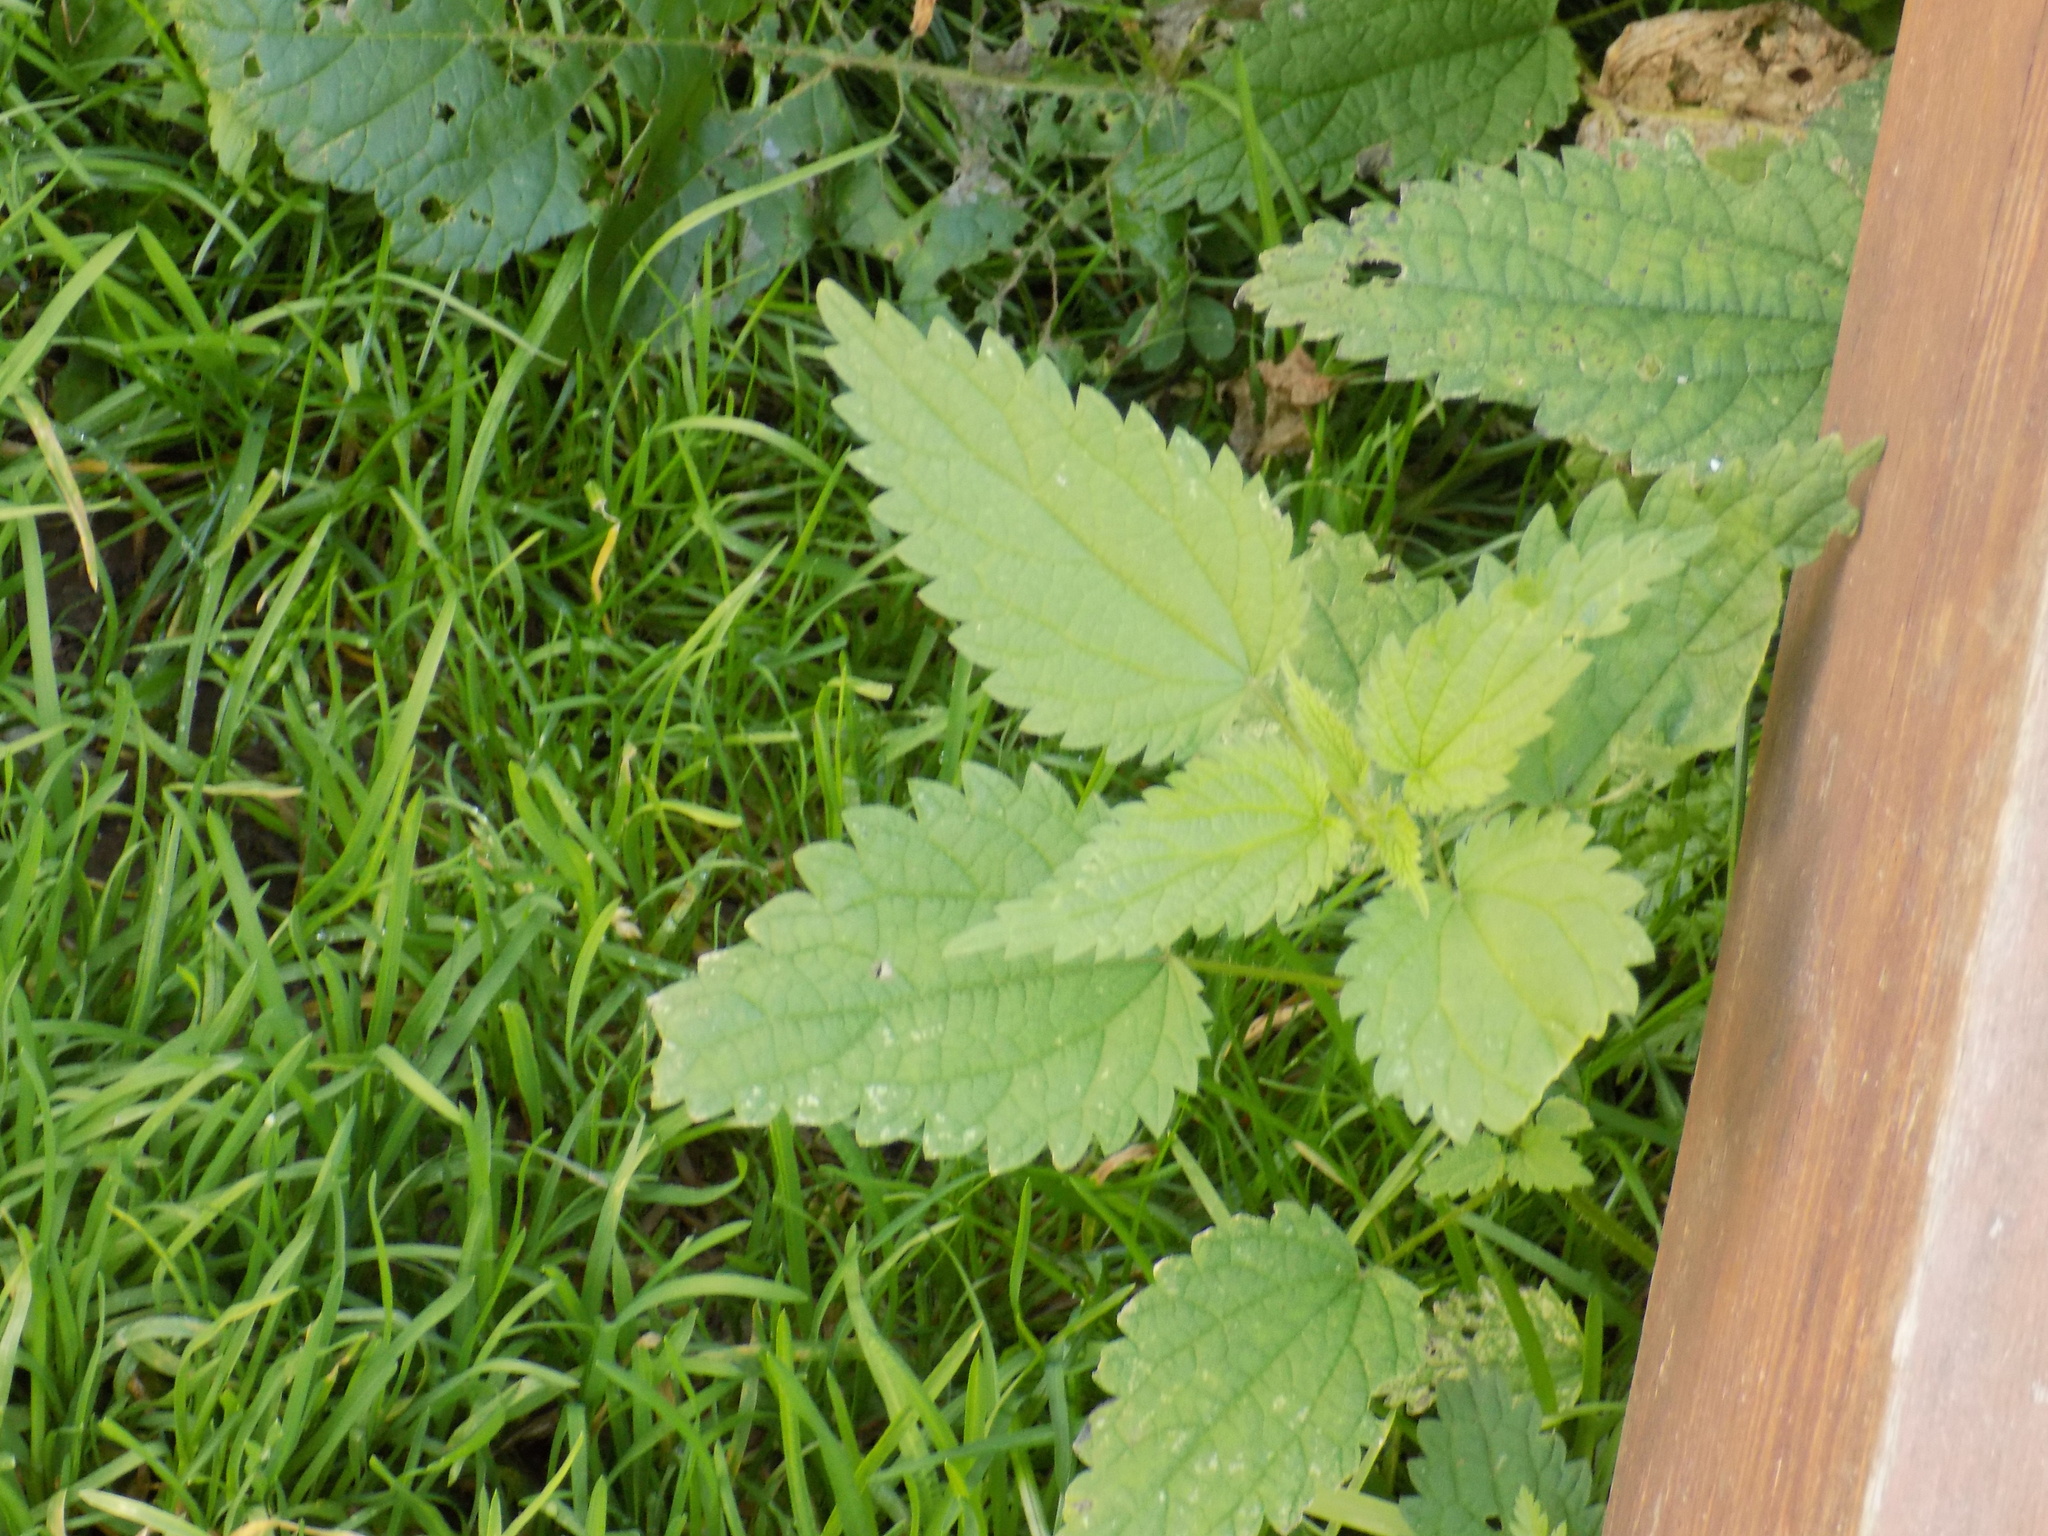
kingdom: Plantae
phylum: Tracheophyta
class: Magnoliopsida
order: Rosales
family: Urticaceae
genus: Urtica
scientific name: Urtica dioica
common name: Common nettle
